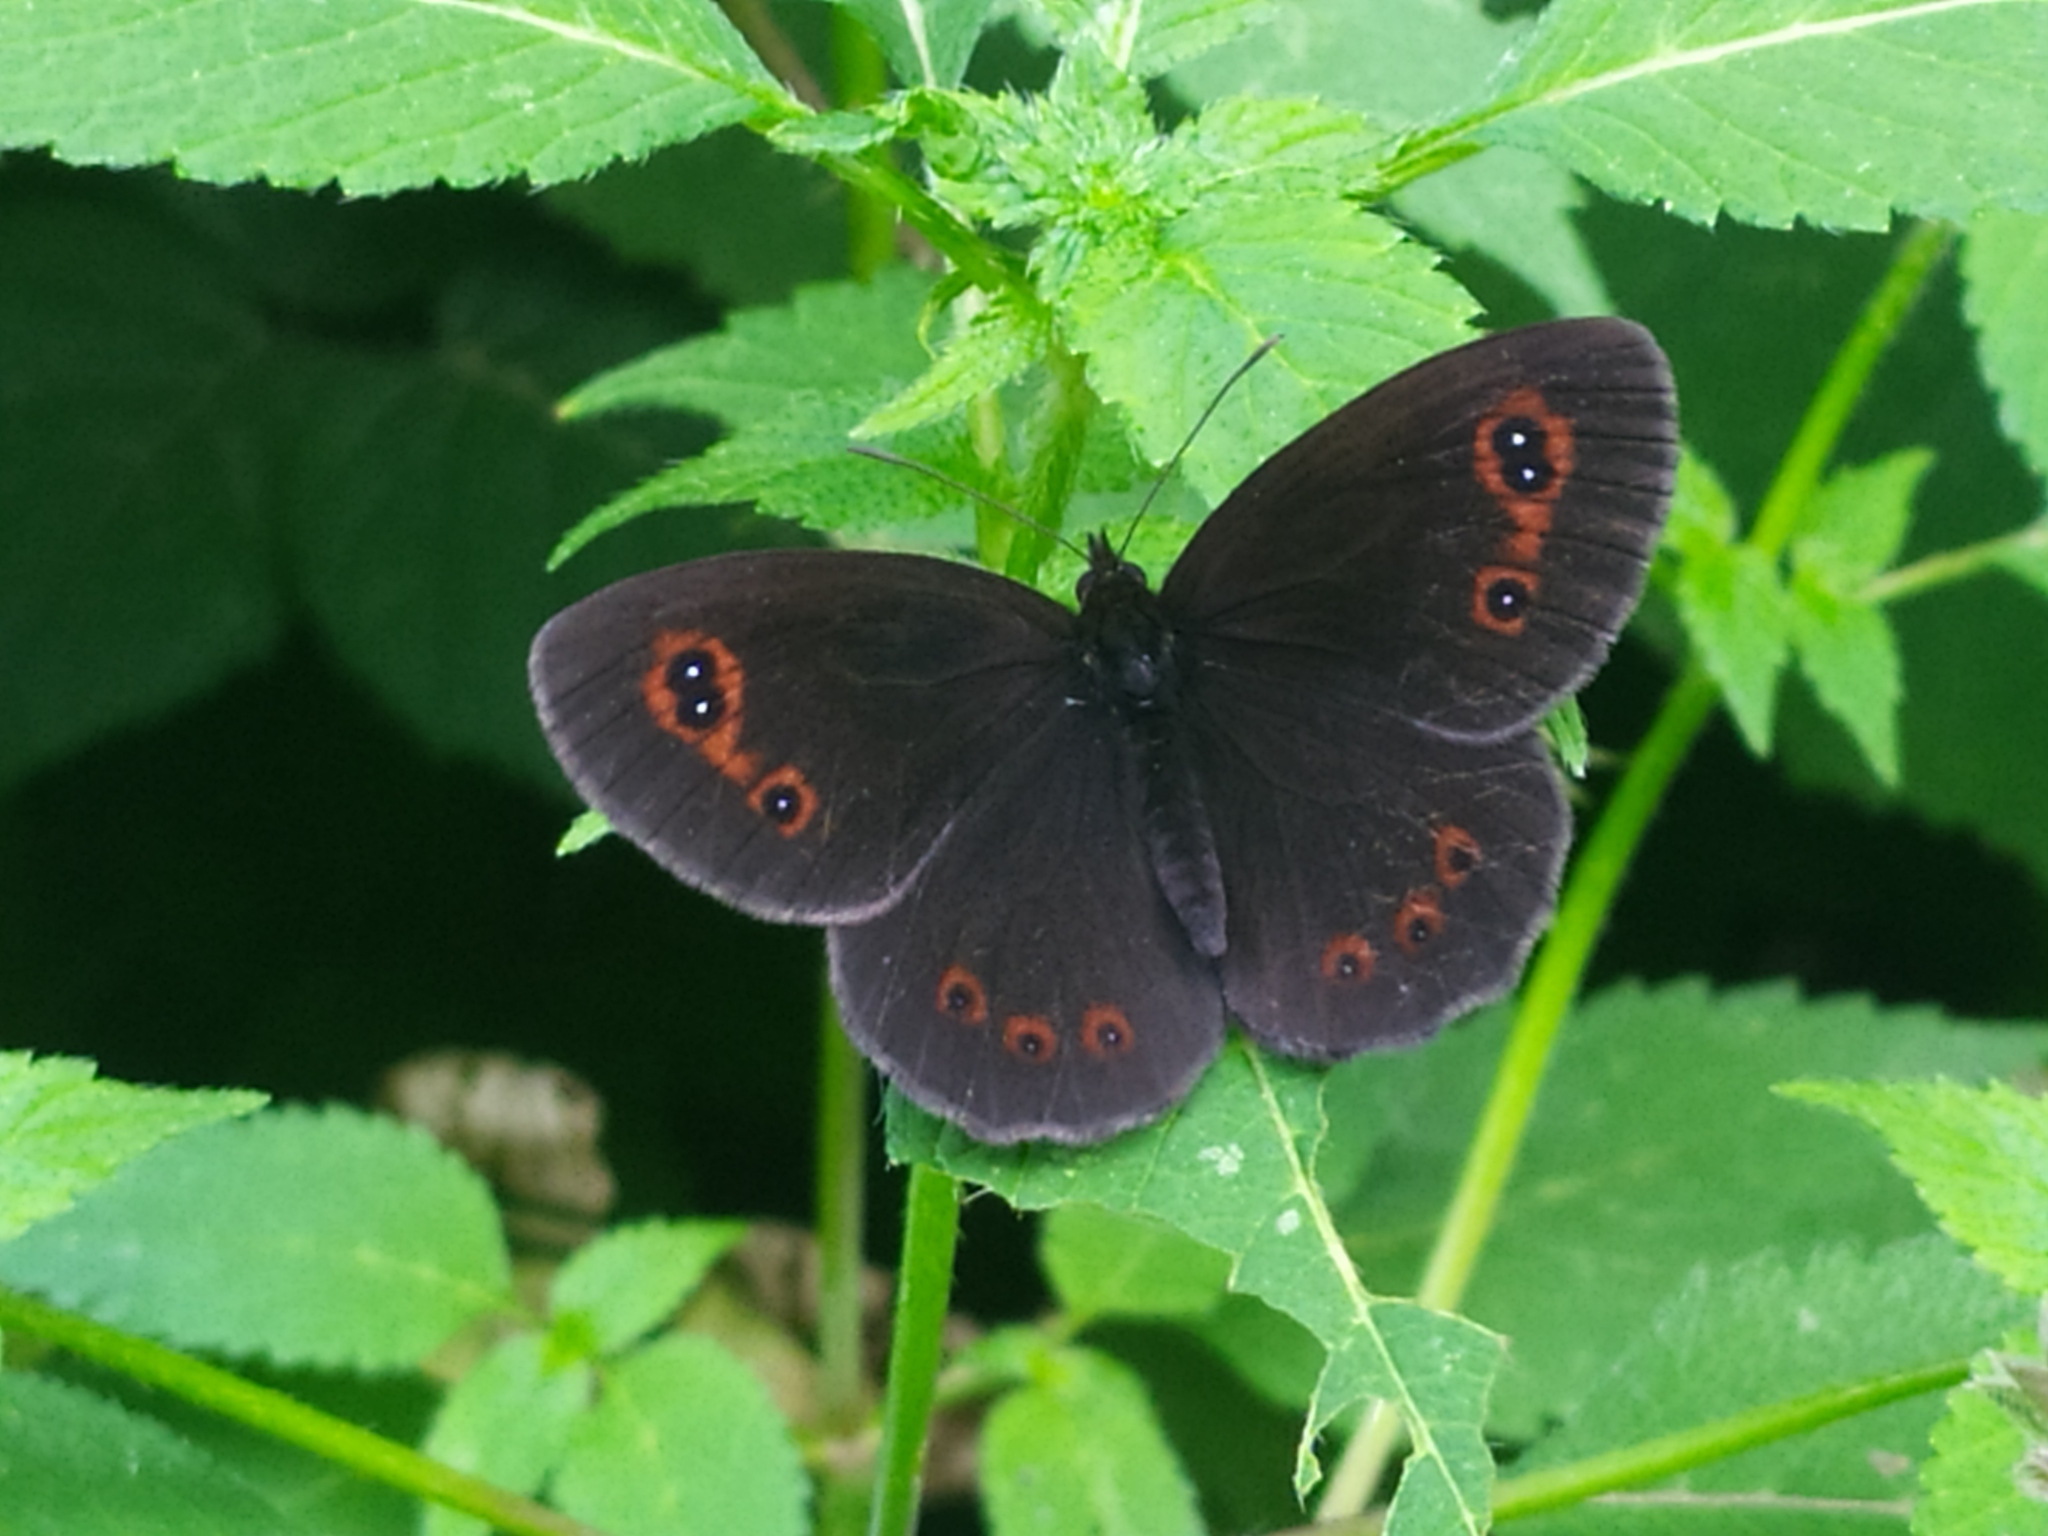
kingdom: Animalia
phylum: Arthropoda
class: Insecta
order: Lepidoptera
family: Nymphalidae
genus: Erebia
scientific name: Erebia aethiops
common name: Scotch argus
